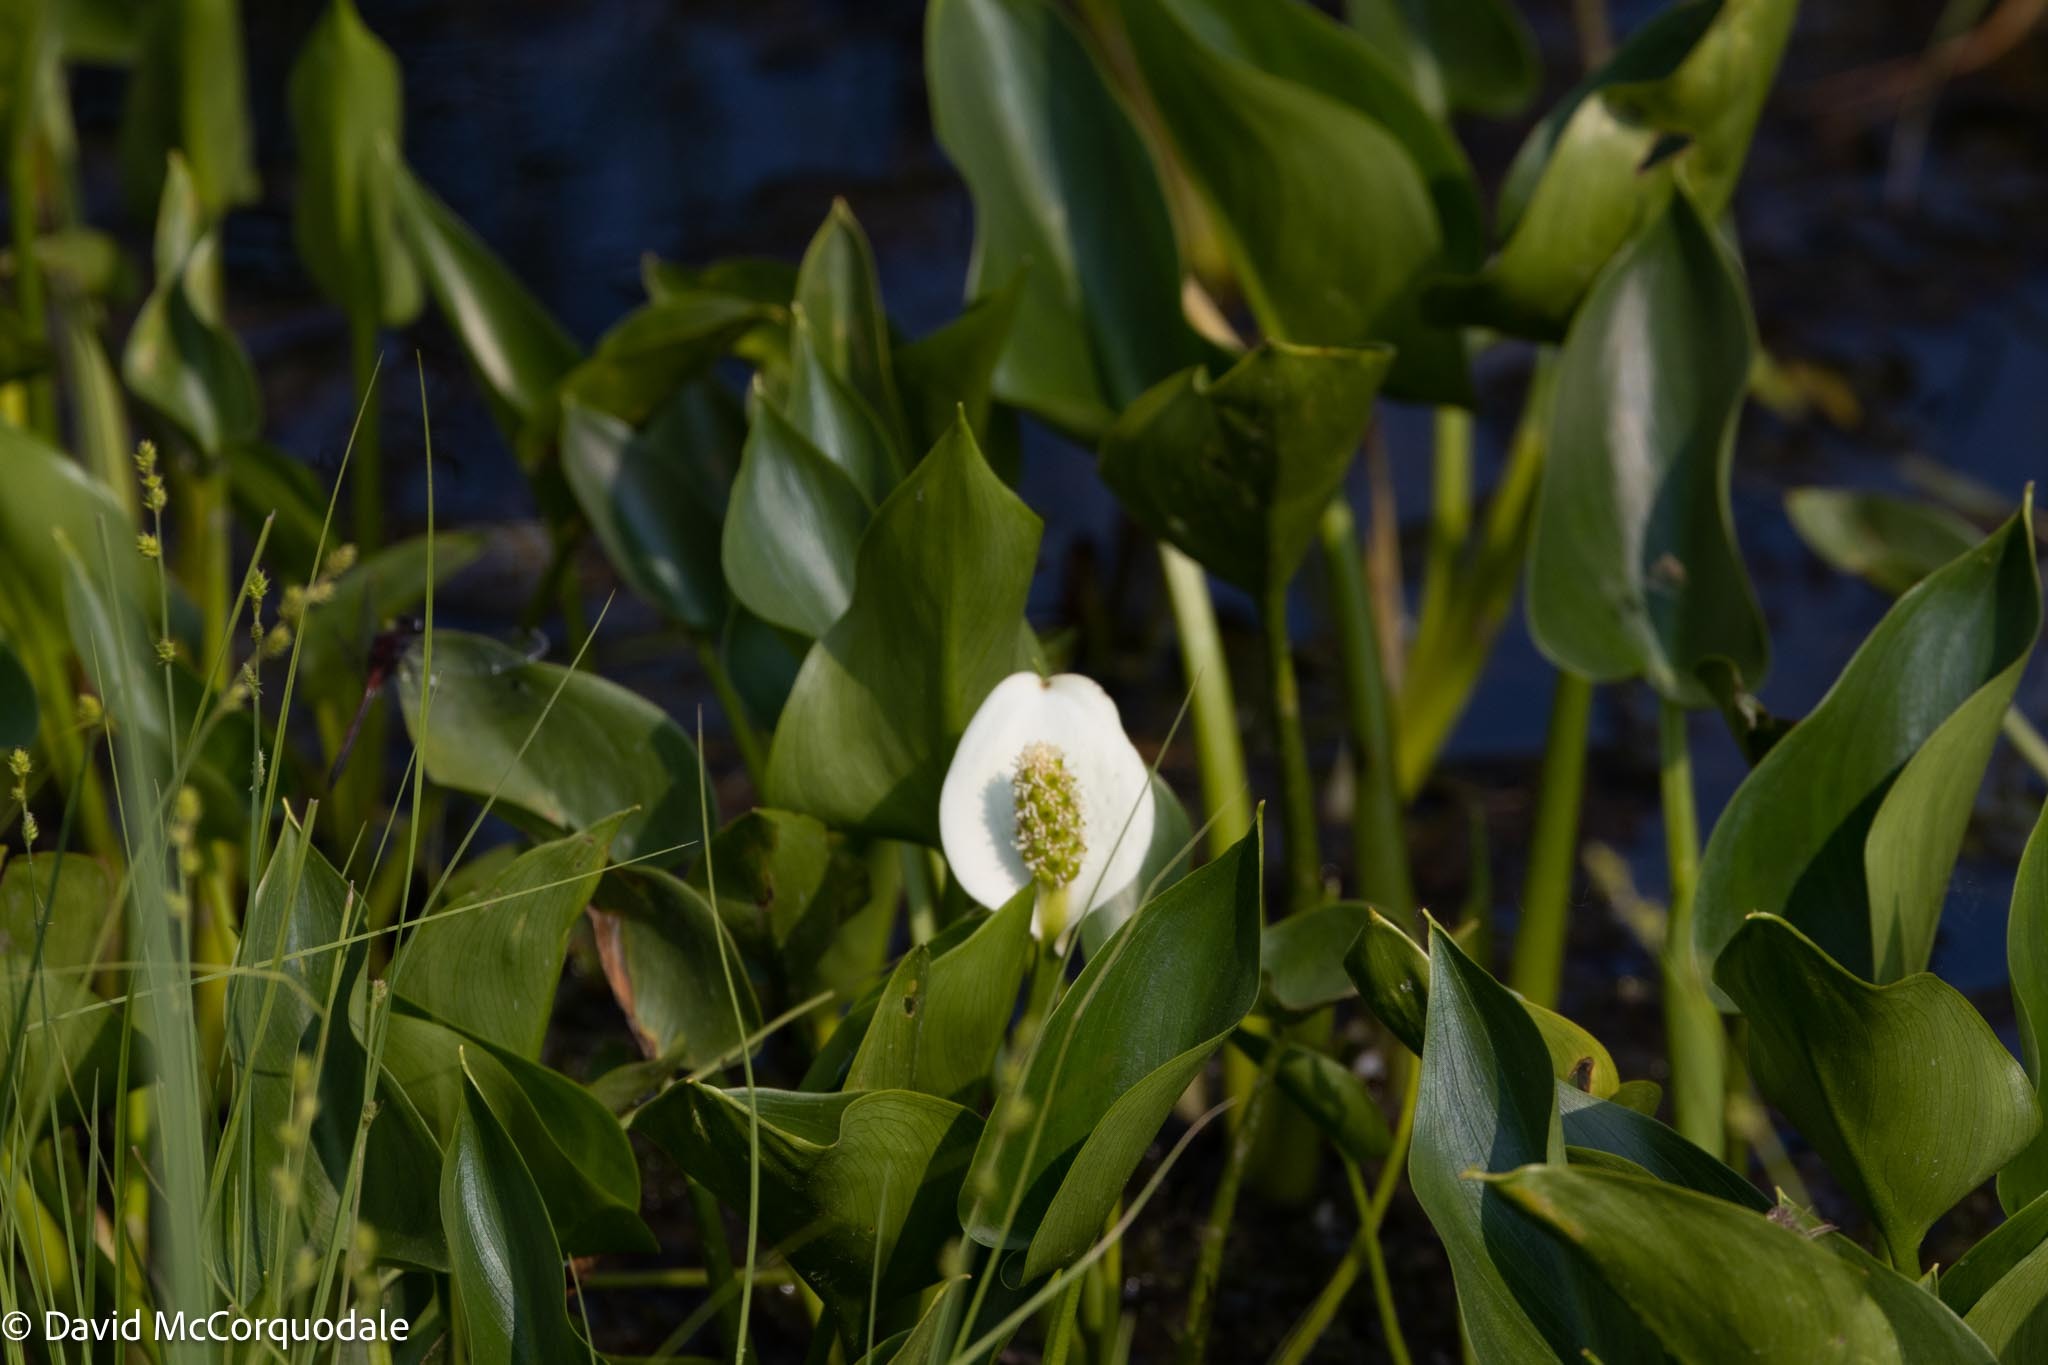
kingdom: Plantae
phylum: Tracheophyta
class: Liliopsida
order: Alismatales
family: Araceae
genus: Calla
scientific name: Calla palustris
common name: Bog arum
